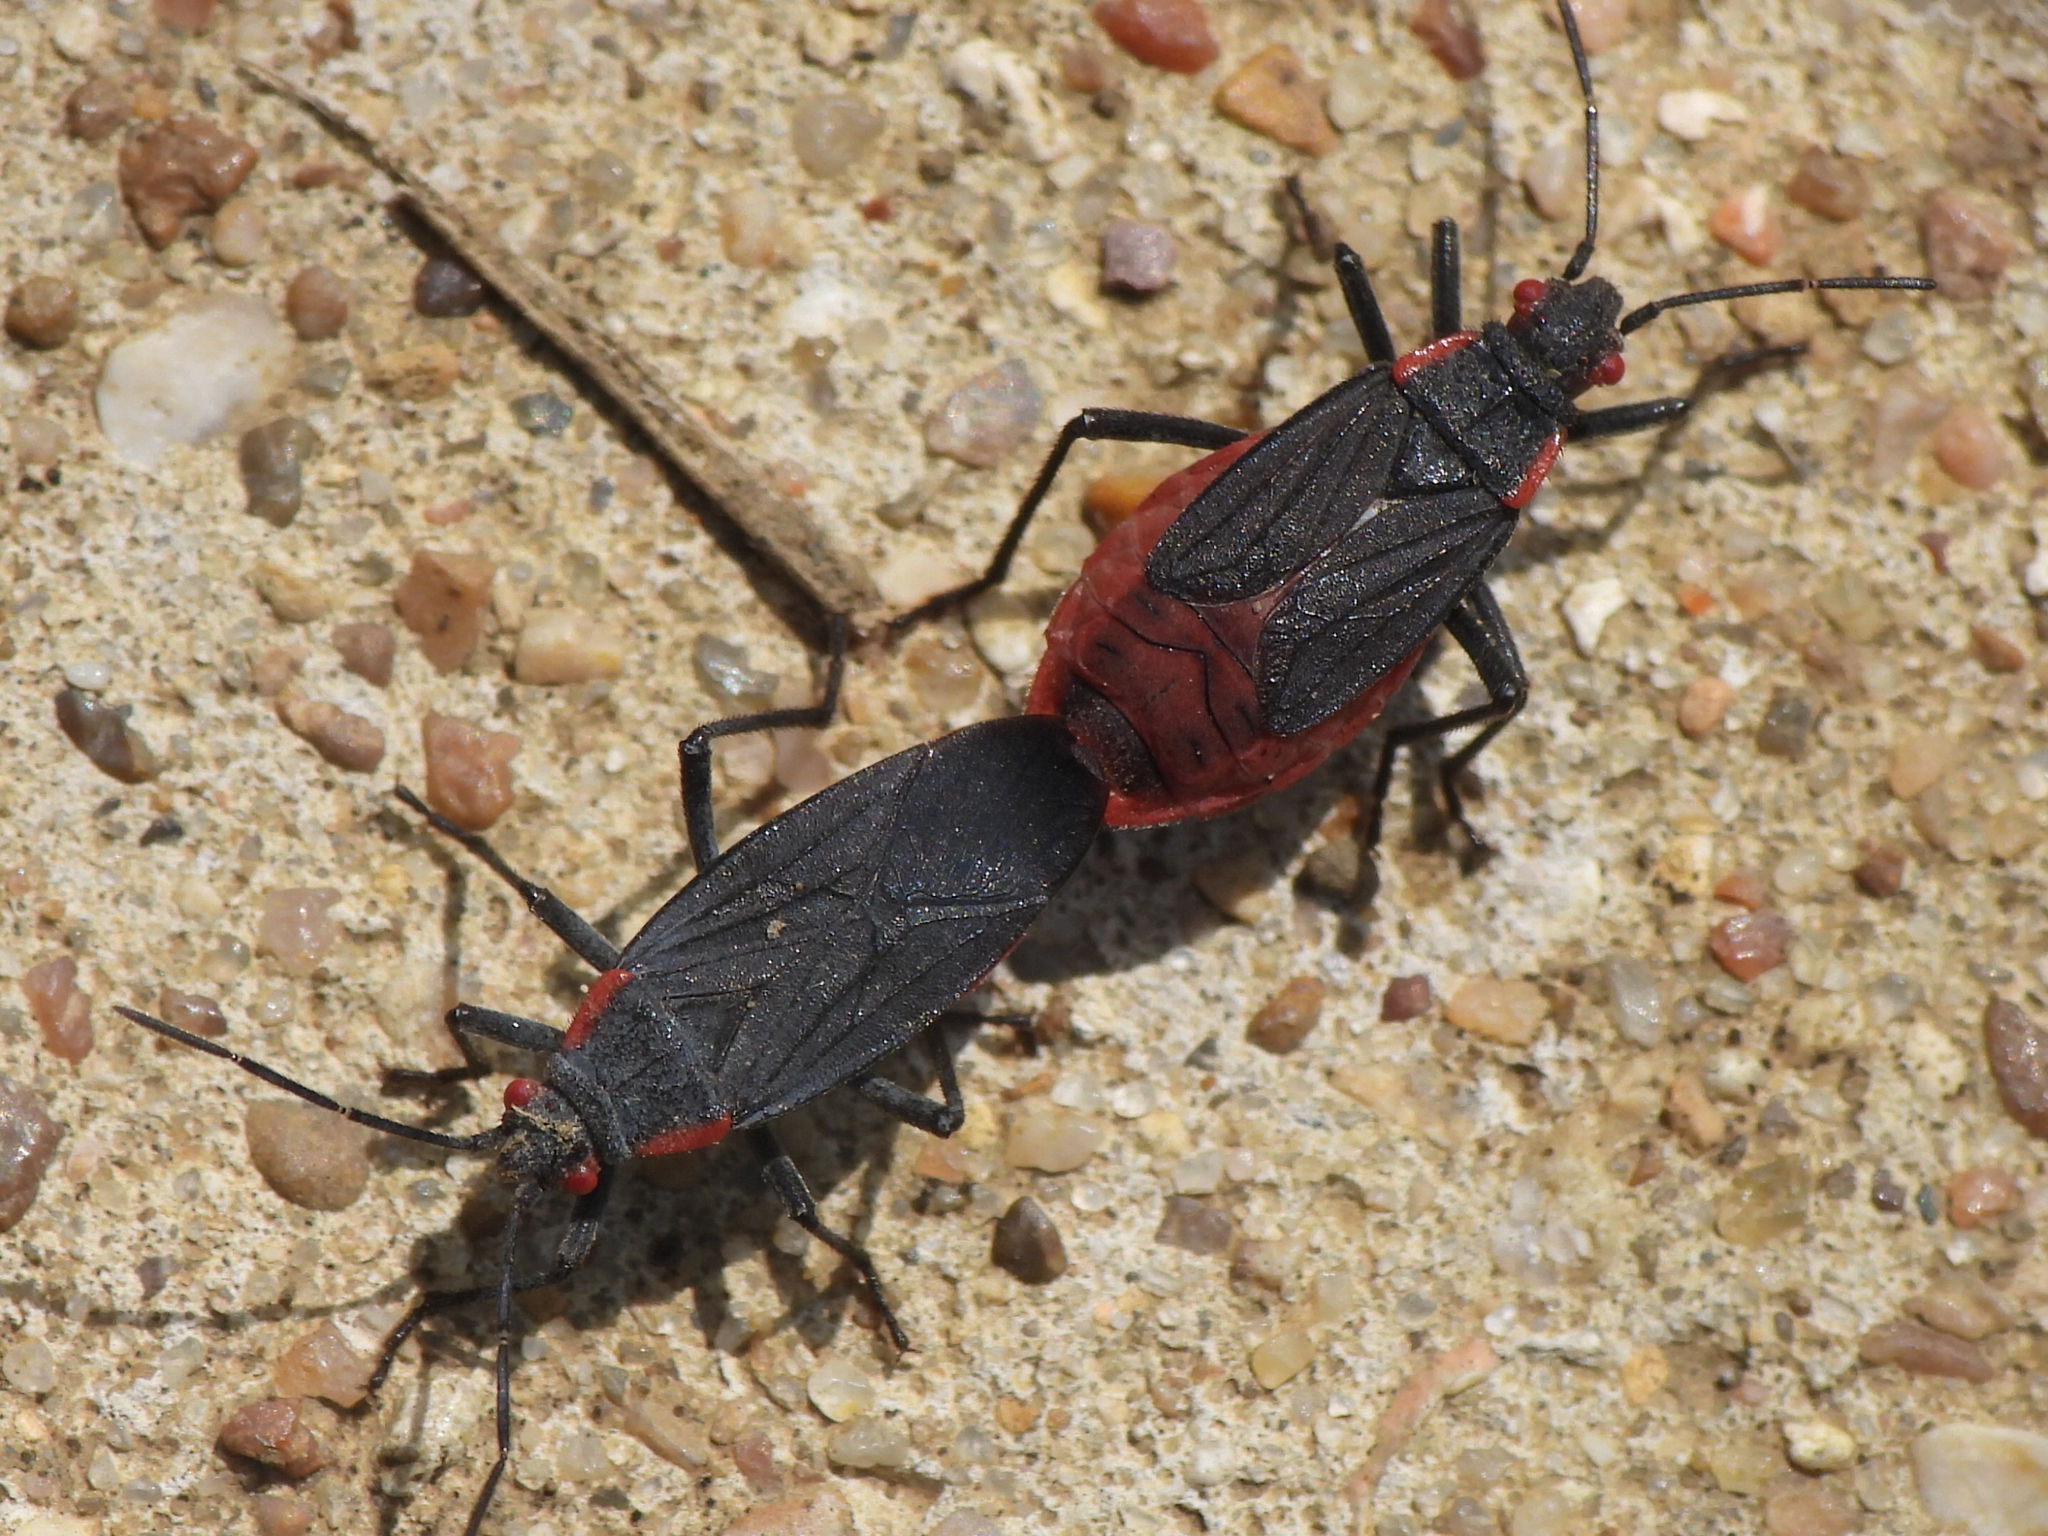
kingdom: Animalia
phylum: Arthropoda
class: Insecta
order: Hemiptera
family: Rhopalidae
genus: Jadera
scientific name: Jadera haematoloma
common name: Red-shouldered bug
